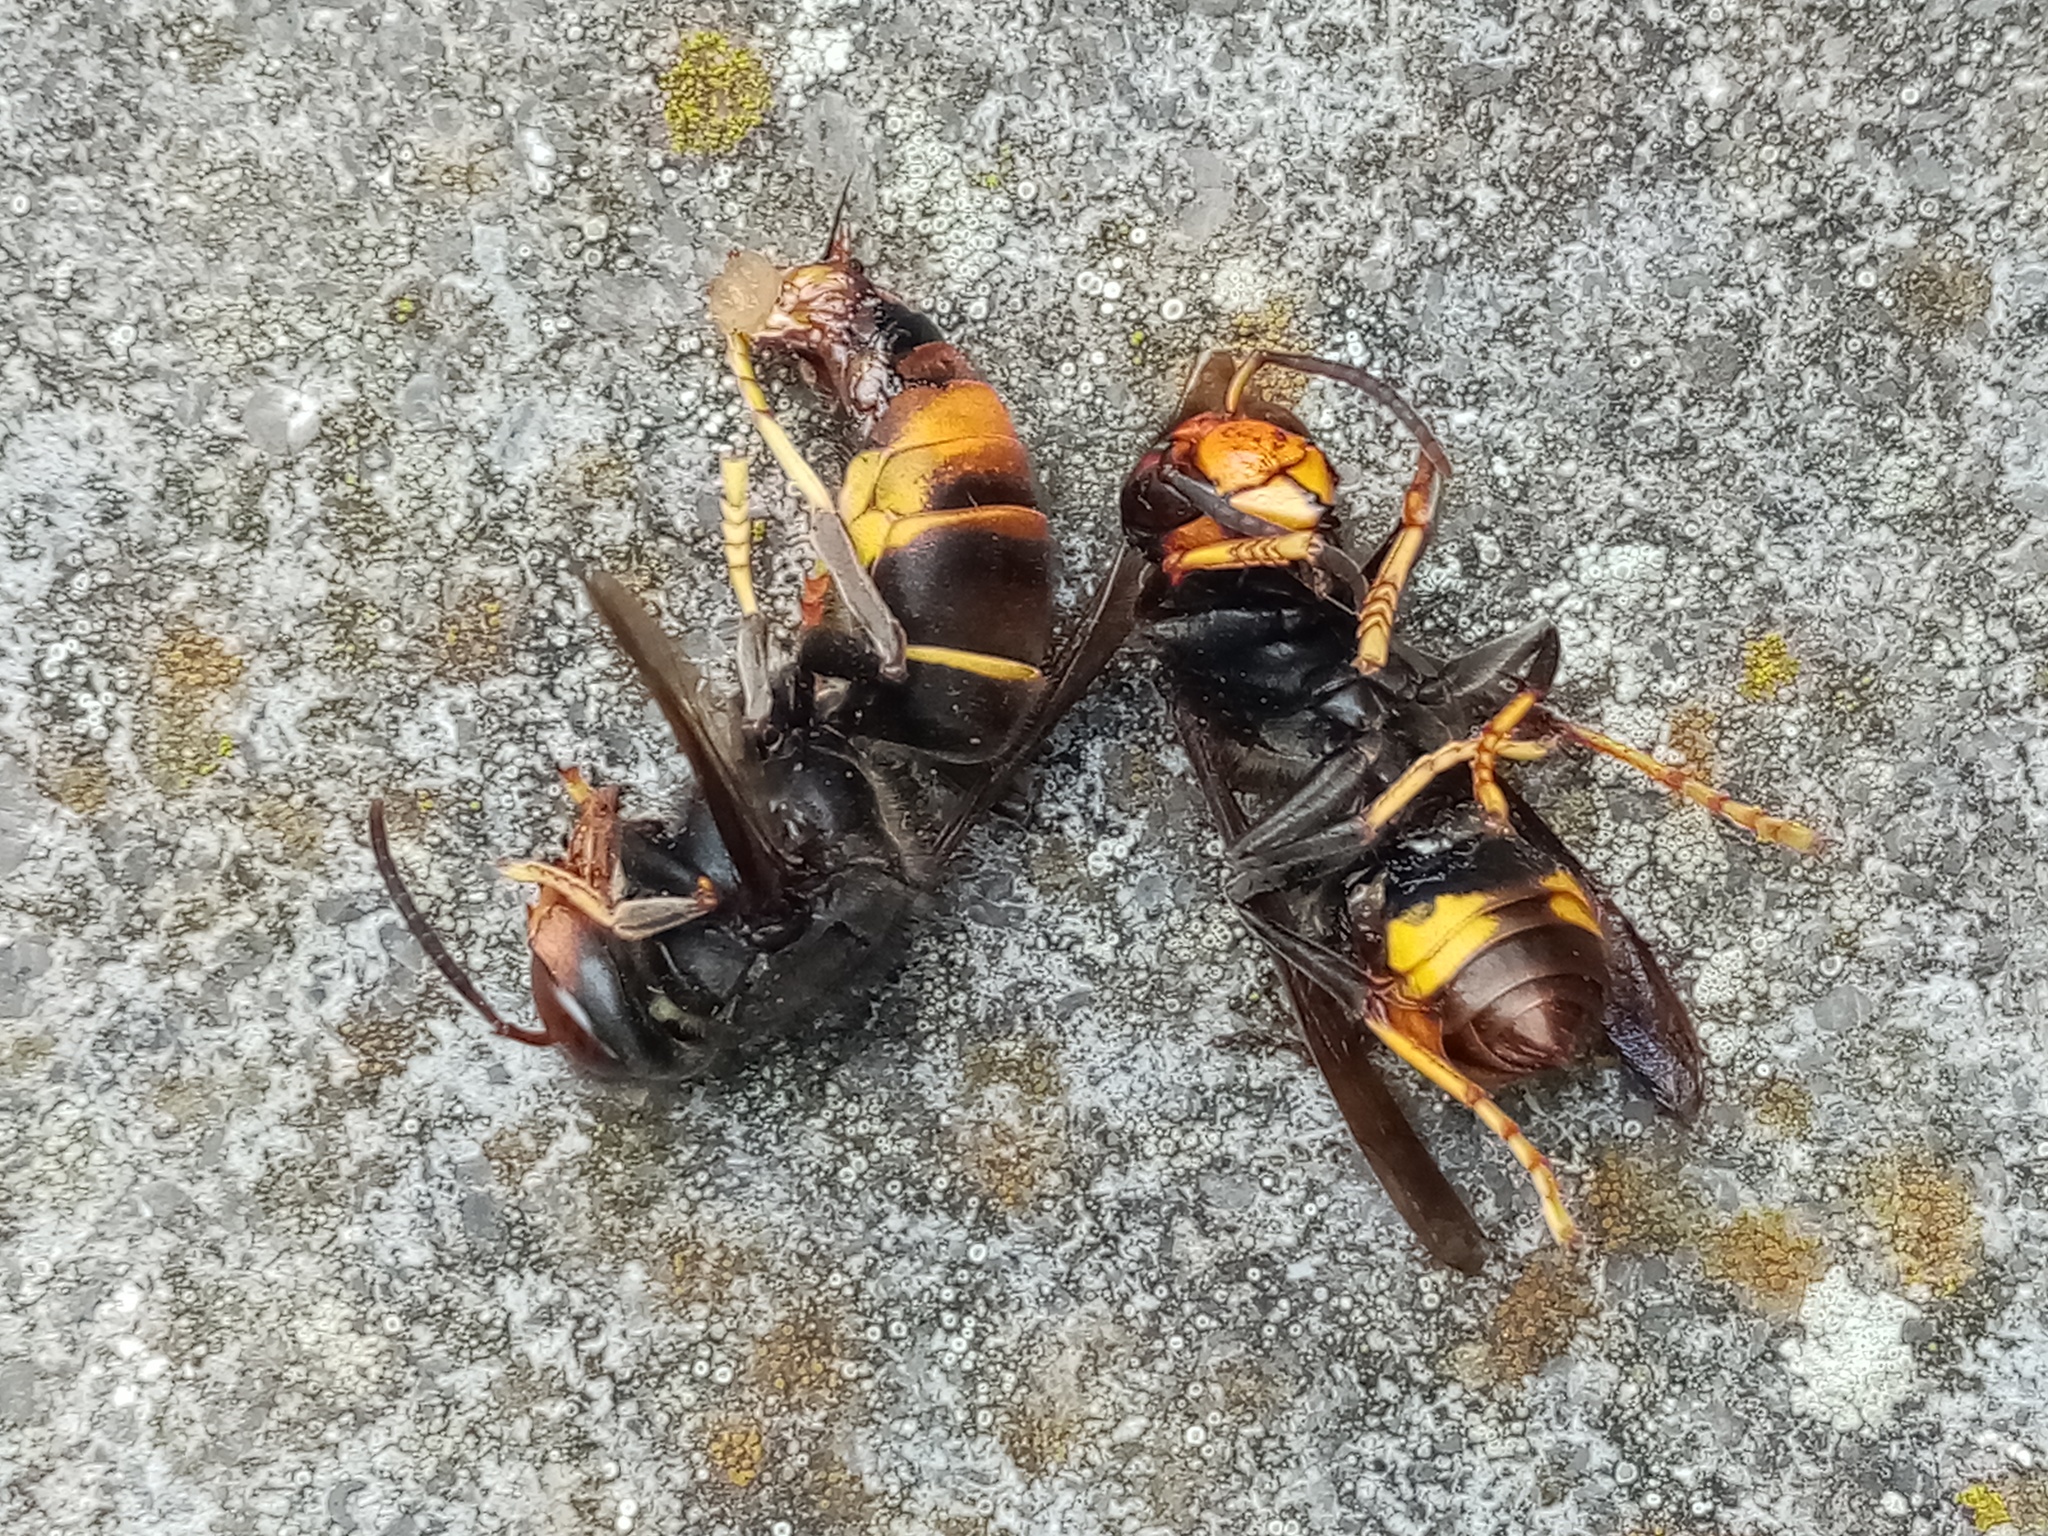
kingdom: Animalia
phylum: Arthropoda
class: Insecta
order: Hymenoptera
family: Vespidae
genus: Vespa
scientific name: Vespa velutina
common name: Asian hornet
